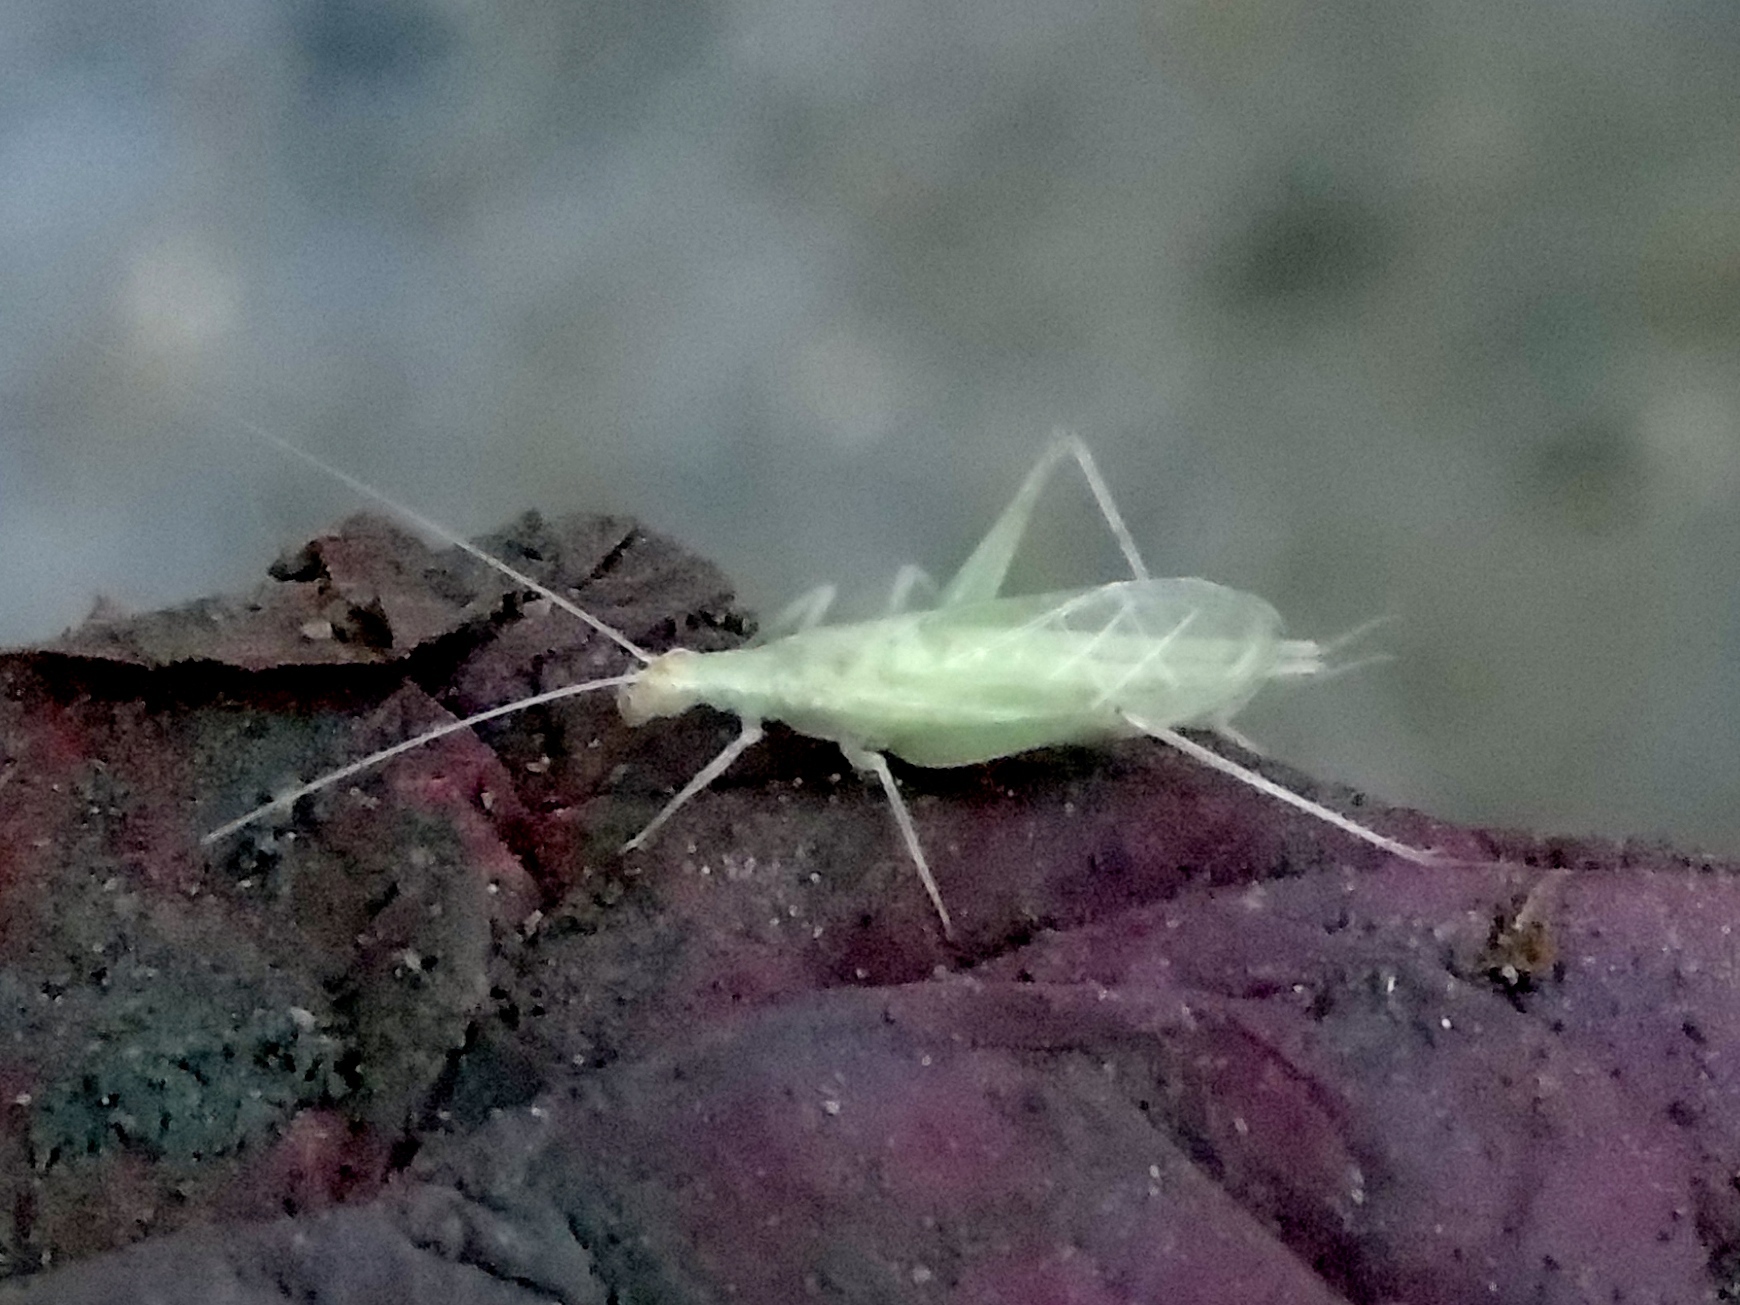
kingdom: Animalia
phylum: Arthropoda
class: Insecta
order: Orthoptera
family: Gryllidae
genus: Oecanthus
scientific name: Oecanthus quadripunctatus
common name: Four-spotted tree cricket
